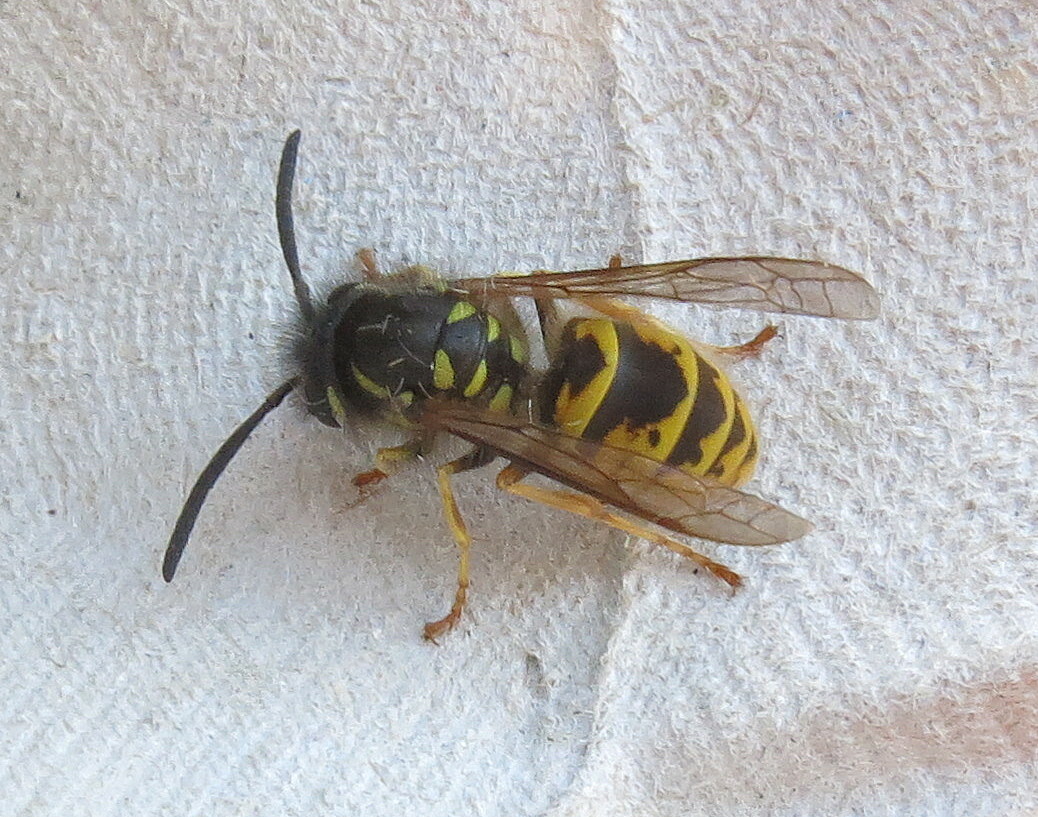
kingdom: Animalia
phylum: Arthropoda
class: Insecta
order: Hymenoptera
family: Vespidae
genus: Vespula
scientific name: Vespula vulgaris
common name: Common wasp
